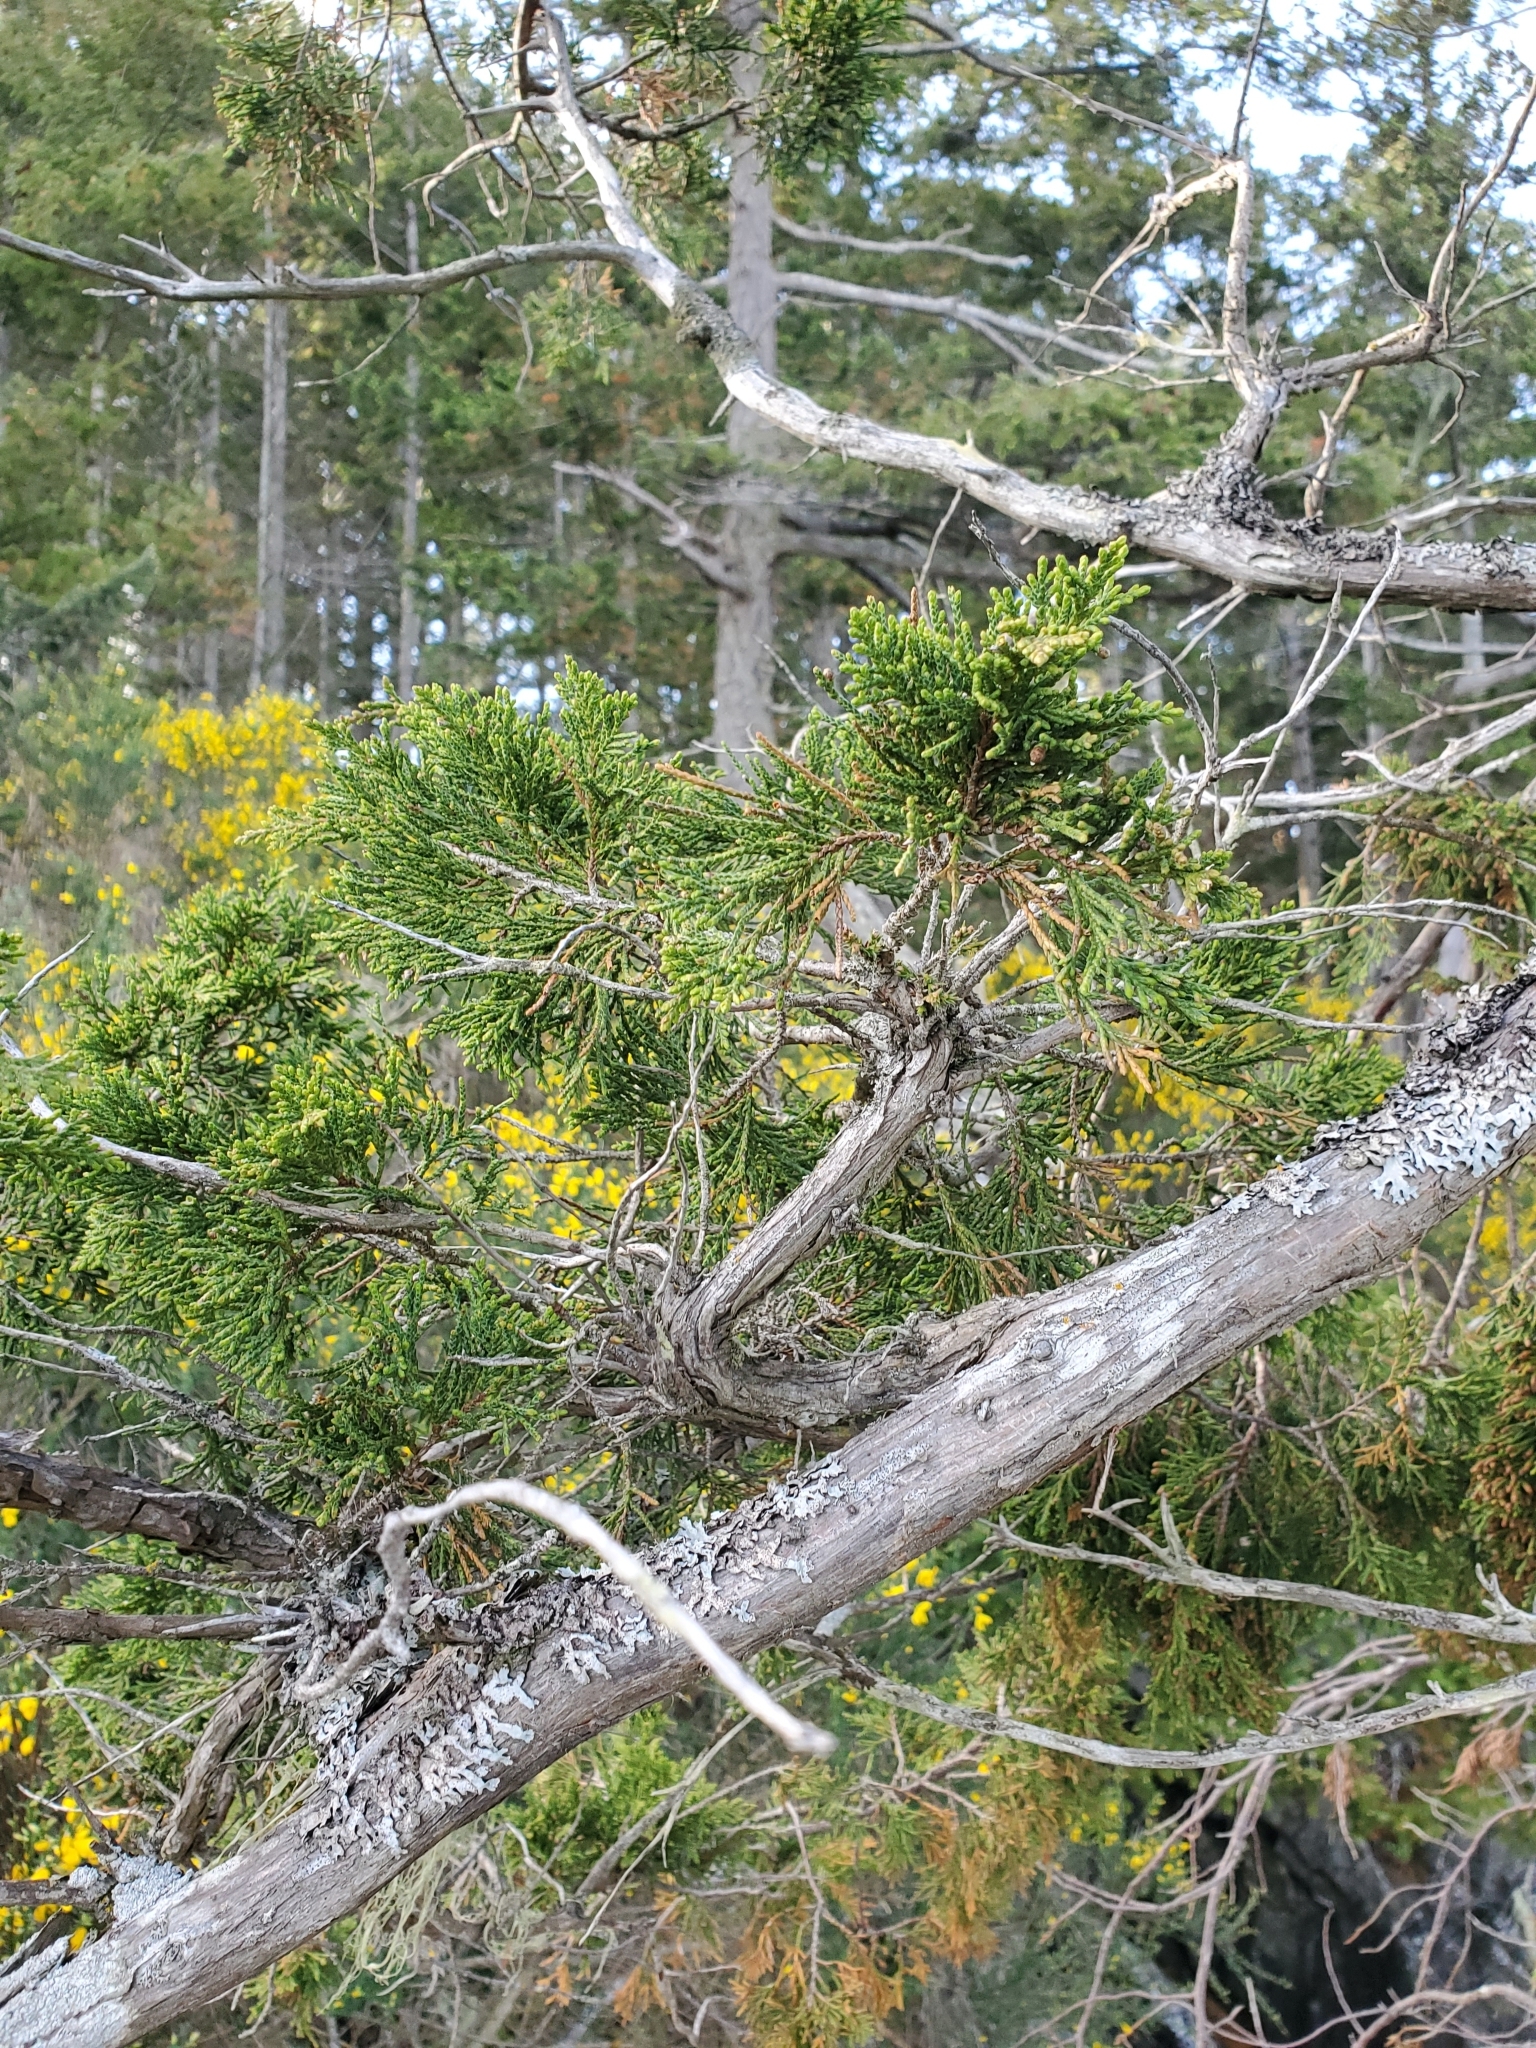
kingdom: Plantae
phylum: Tracheophyta
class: Pinopsida
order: Pinales
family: Cupressaceae
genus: Juniperus
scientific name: Juniperus scopulorum
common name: Rocky mountain juniper
